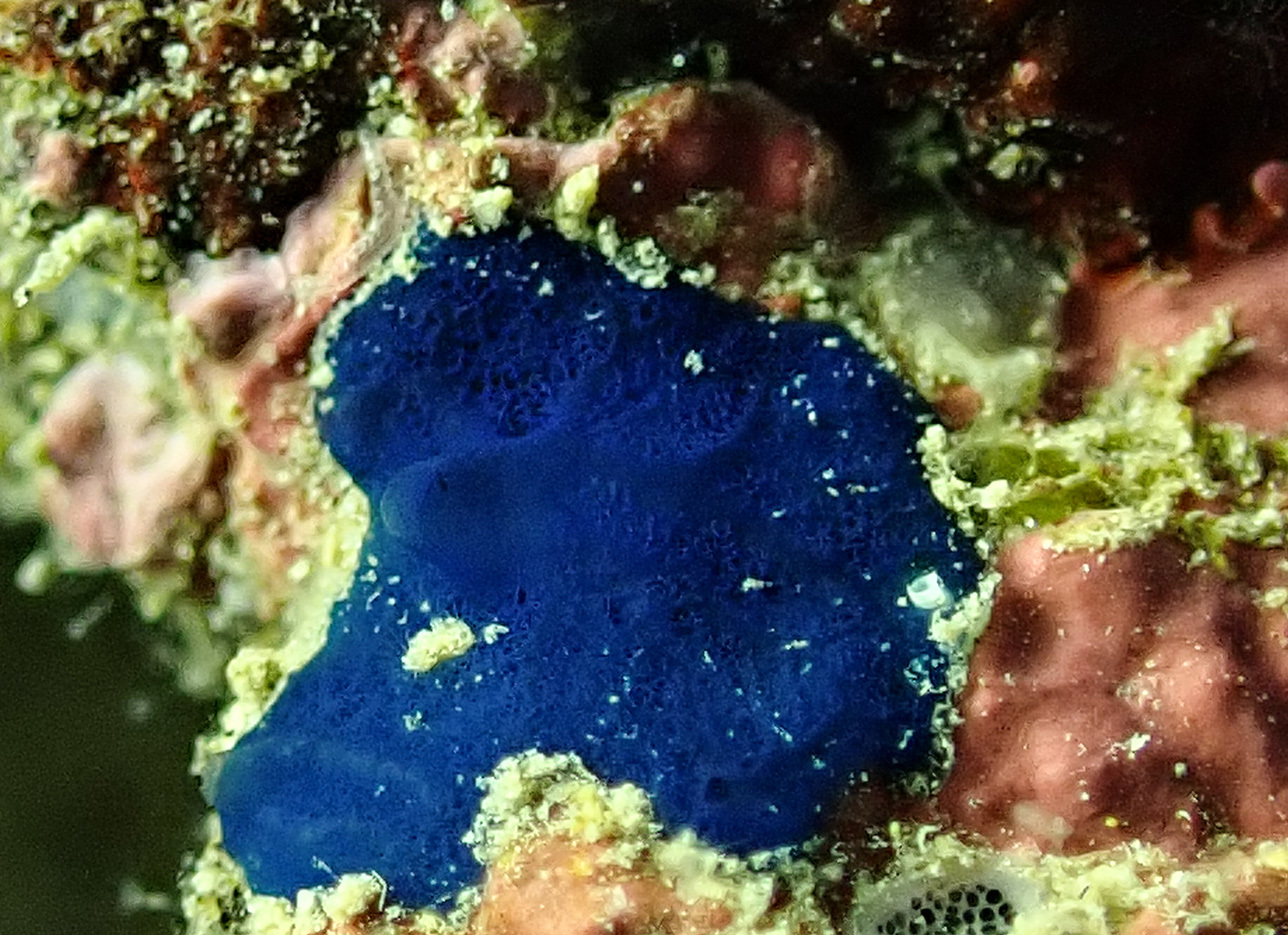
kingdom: Animalia
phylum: Porifera
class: Demospongiae
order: Suberitida
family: Suberitidae
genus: Terpios
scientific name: Terpios gelatinosus
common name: Blue encrusting sponge
